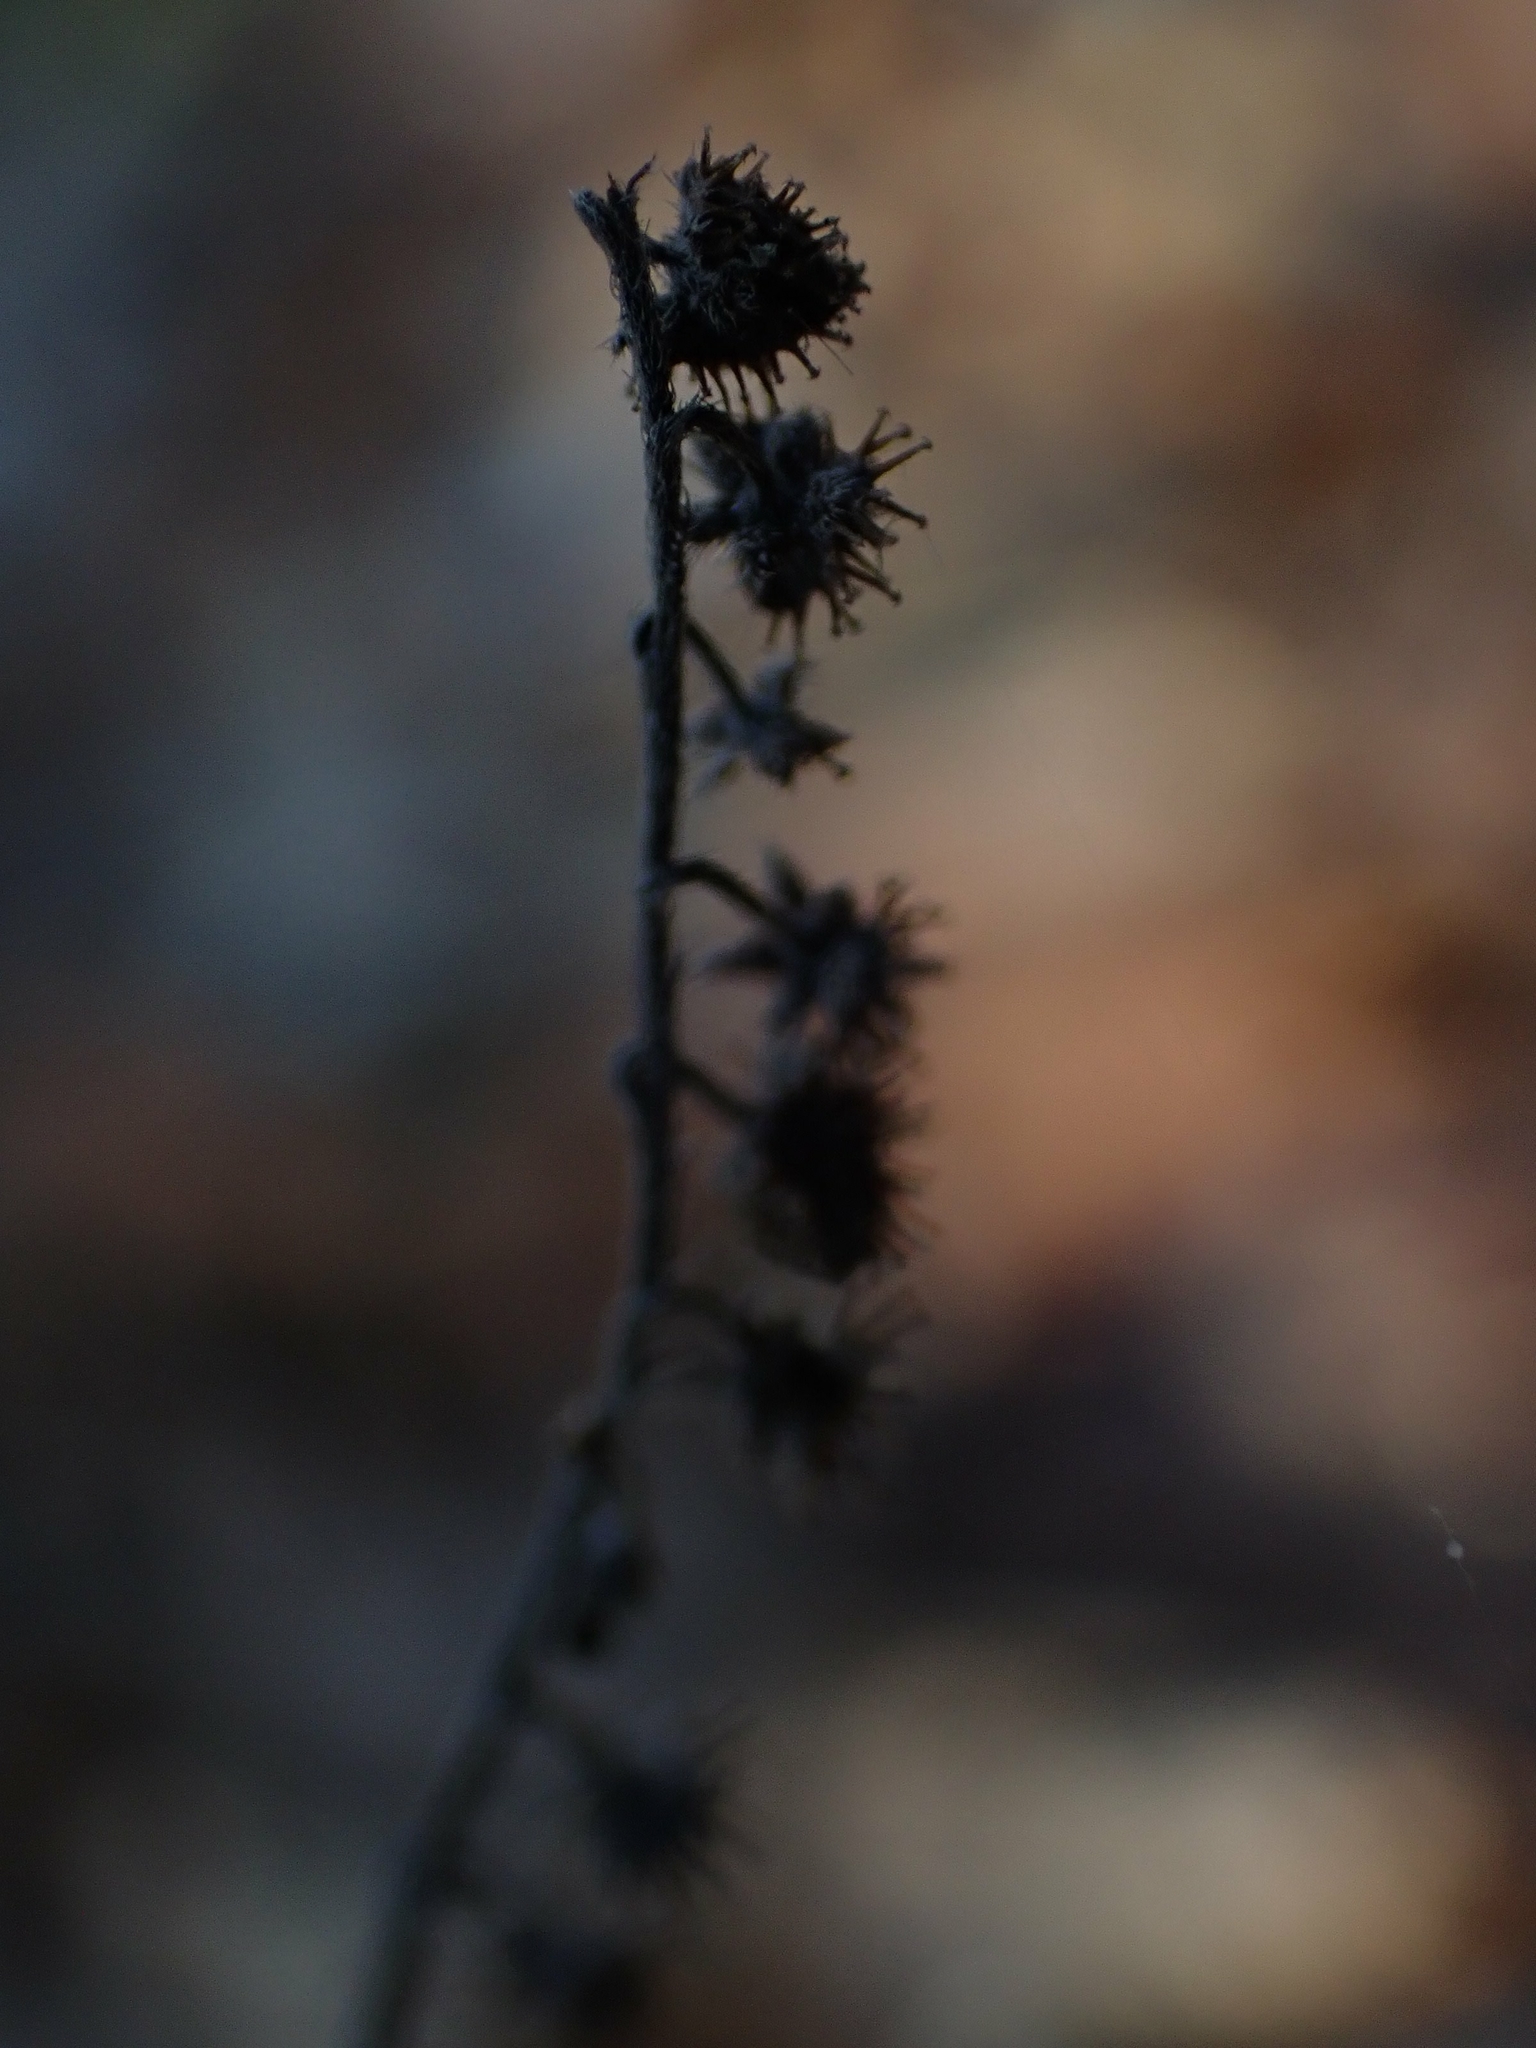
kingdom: Plantae
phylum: Tracheophyta
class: Magnoliopsida
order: Boraginales
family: Boraginaceae
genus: Hackelia
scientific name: Hackelia deflexa
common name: Nodding stickseed
